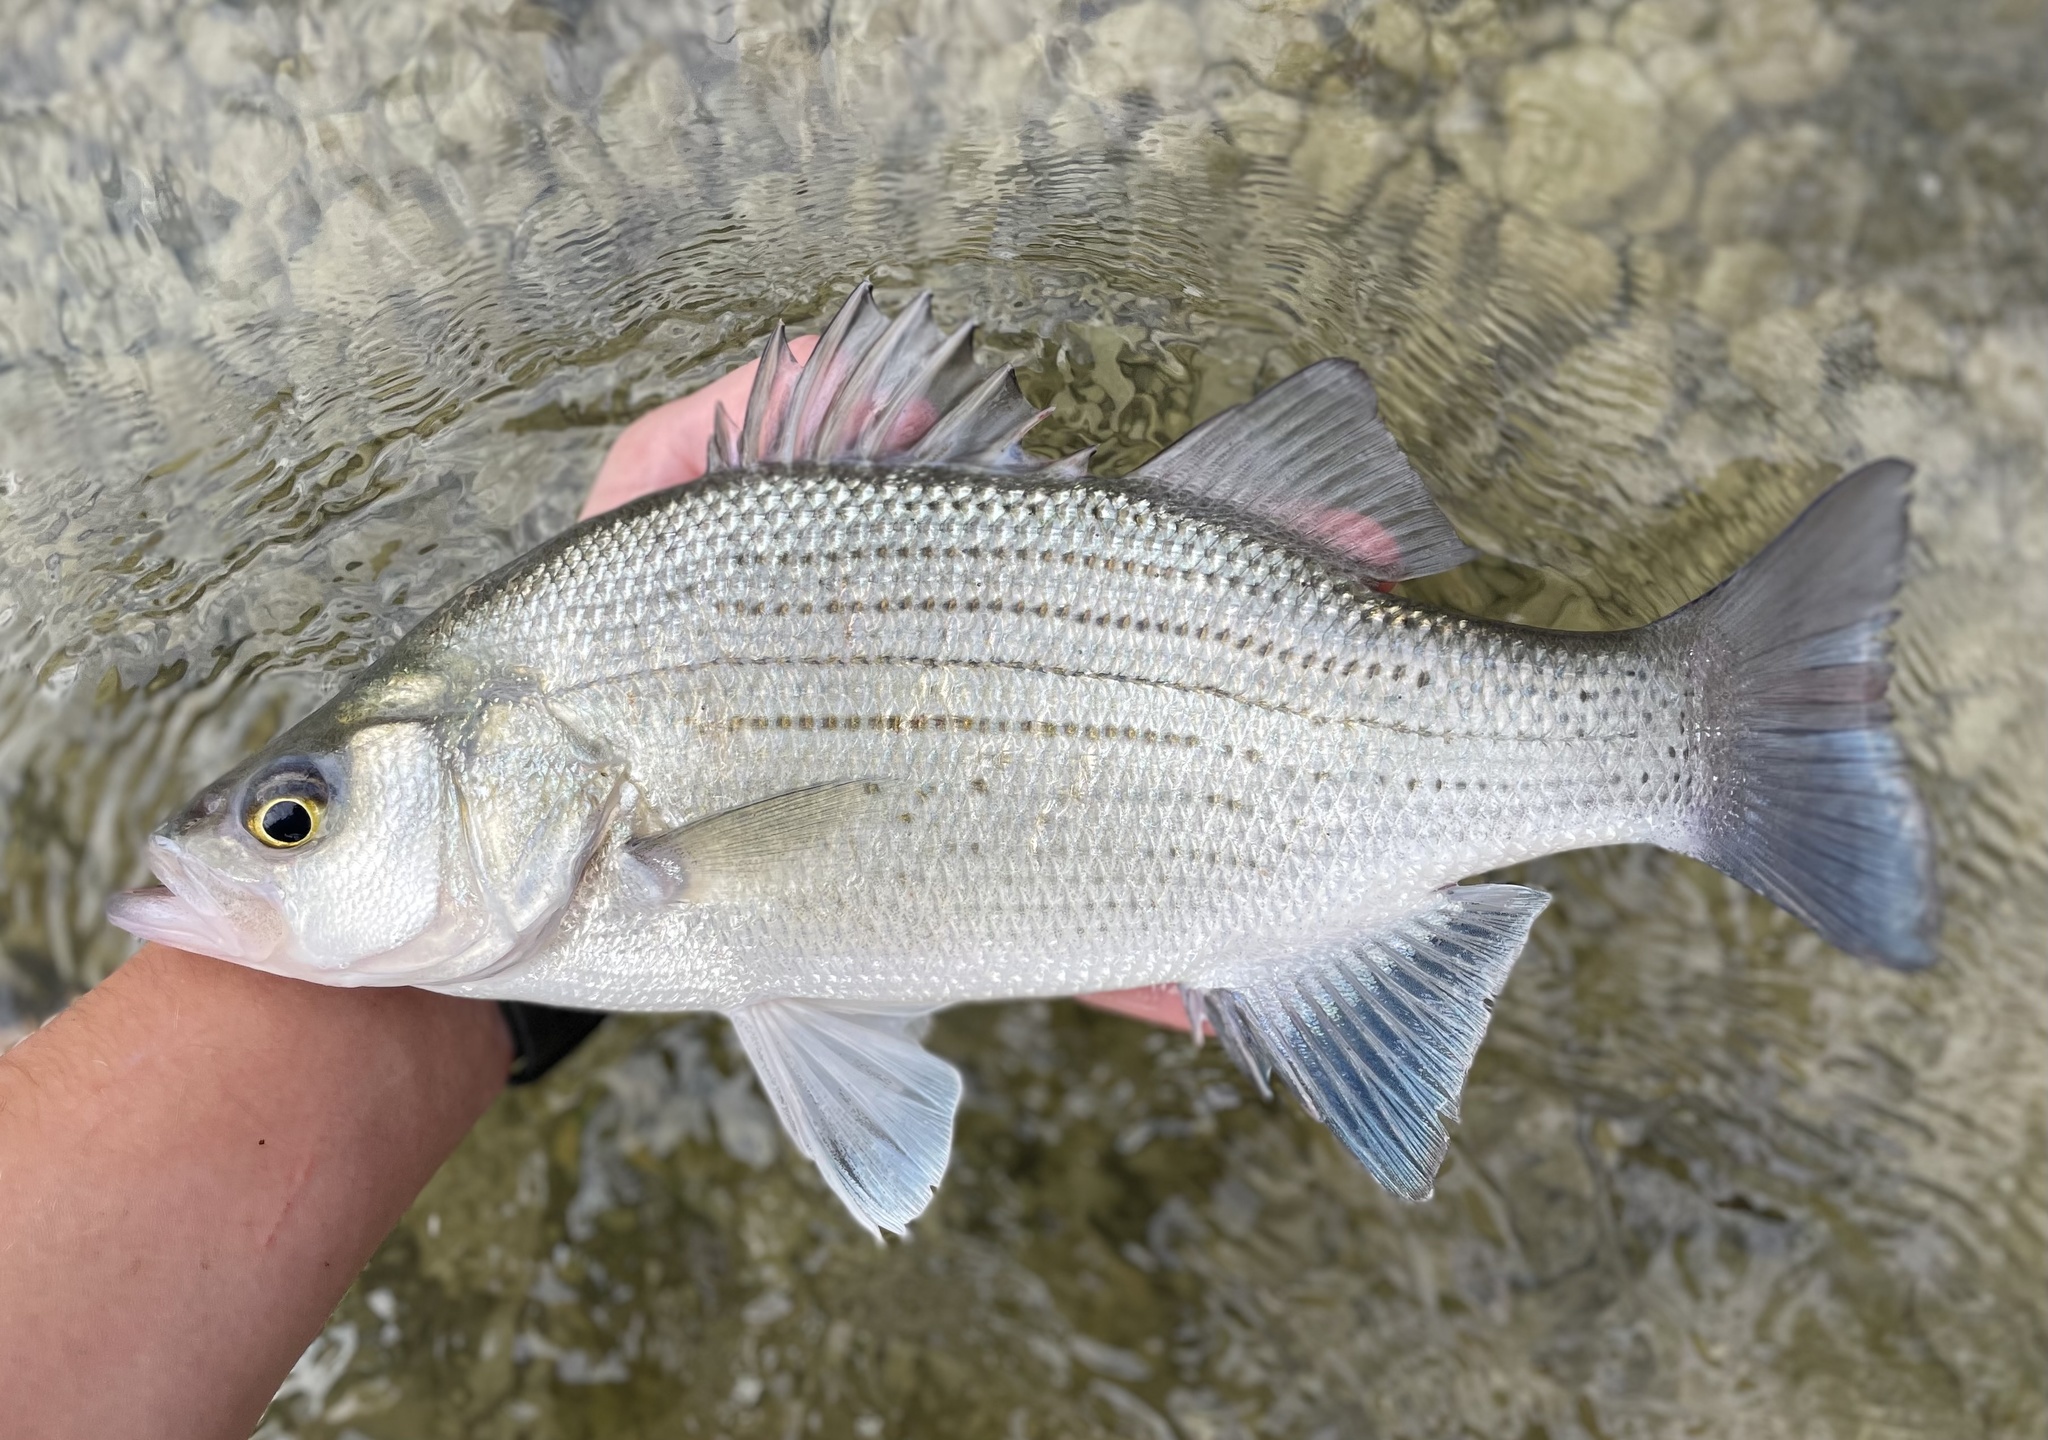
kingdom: Animalia
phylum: Chordata
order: Perciformes
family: Moronidae
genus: Morone
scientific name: Morone chrysops
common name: White bass
